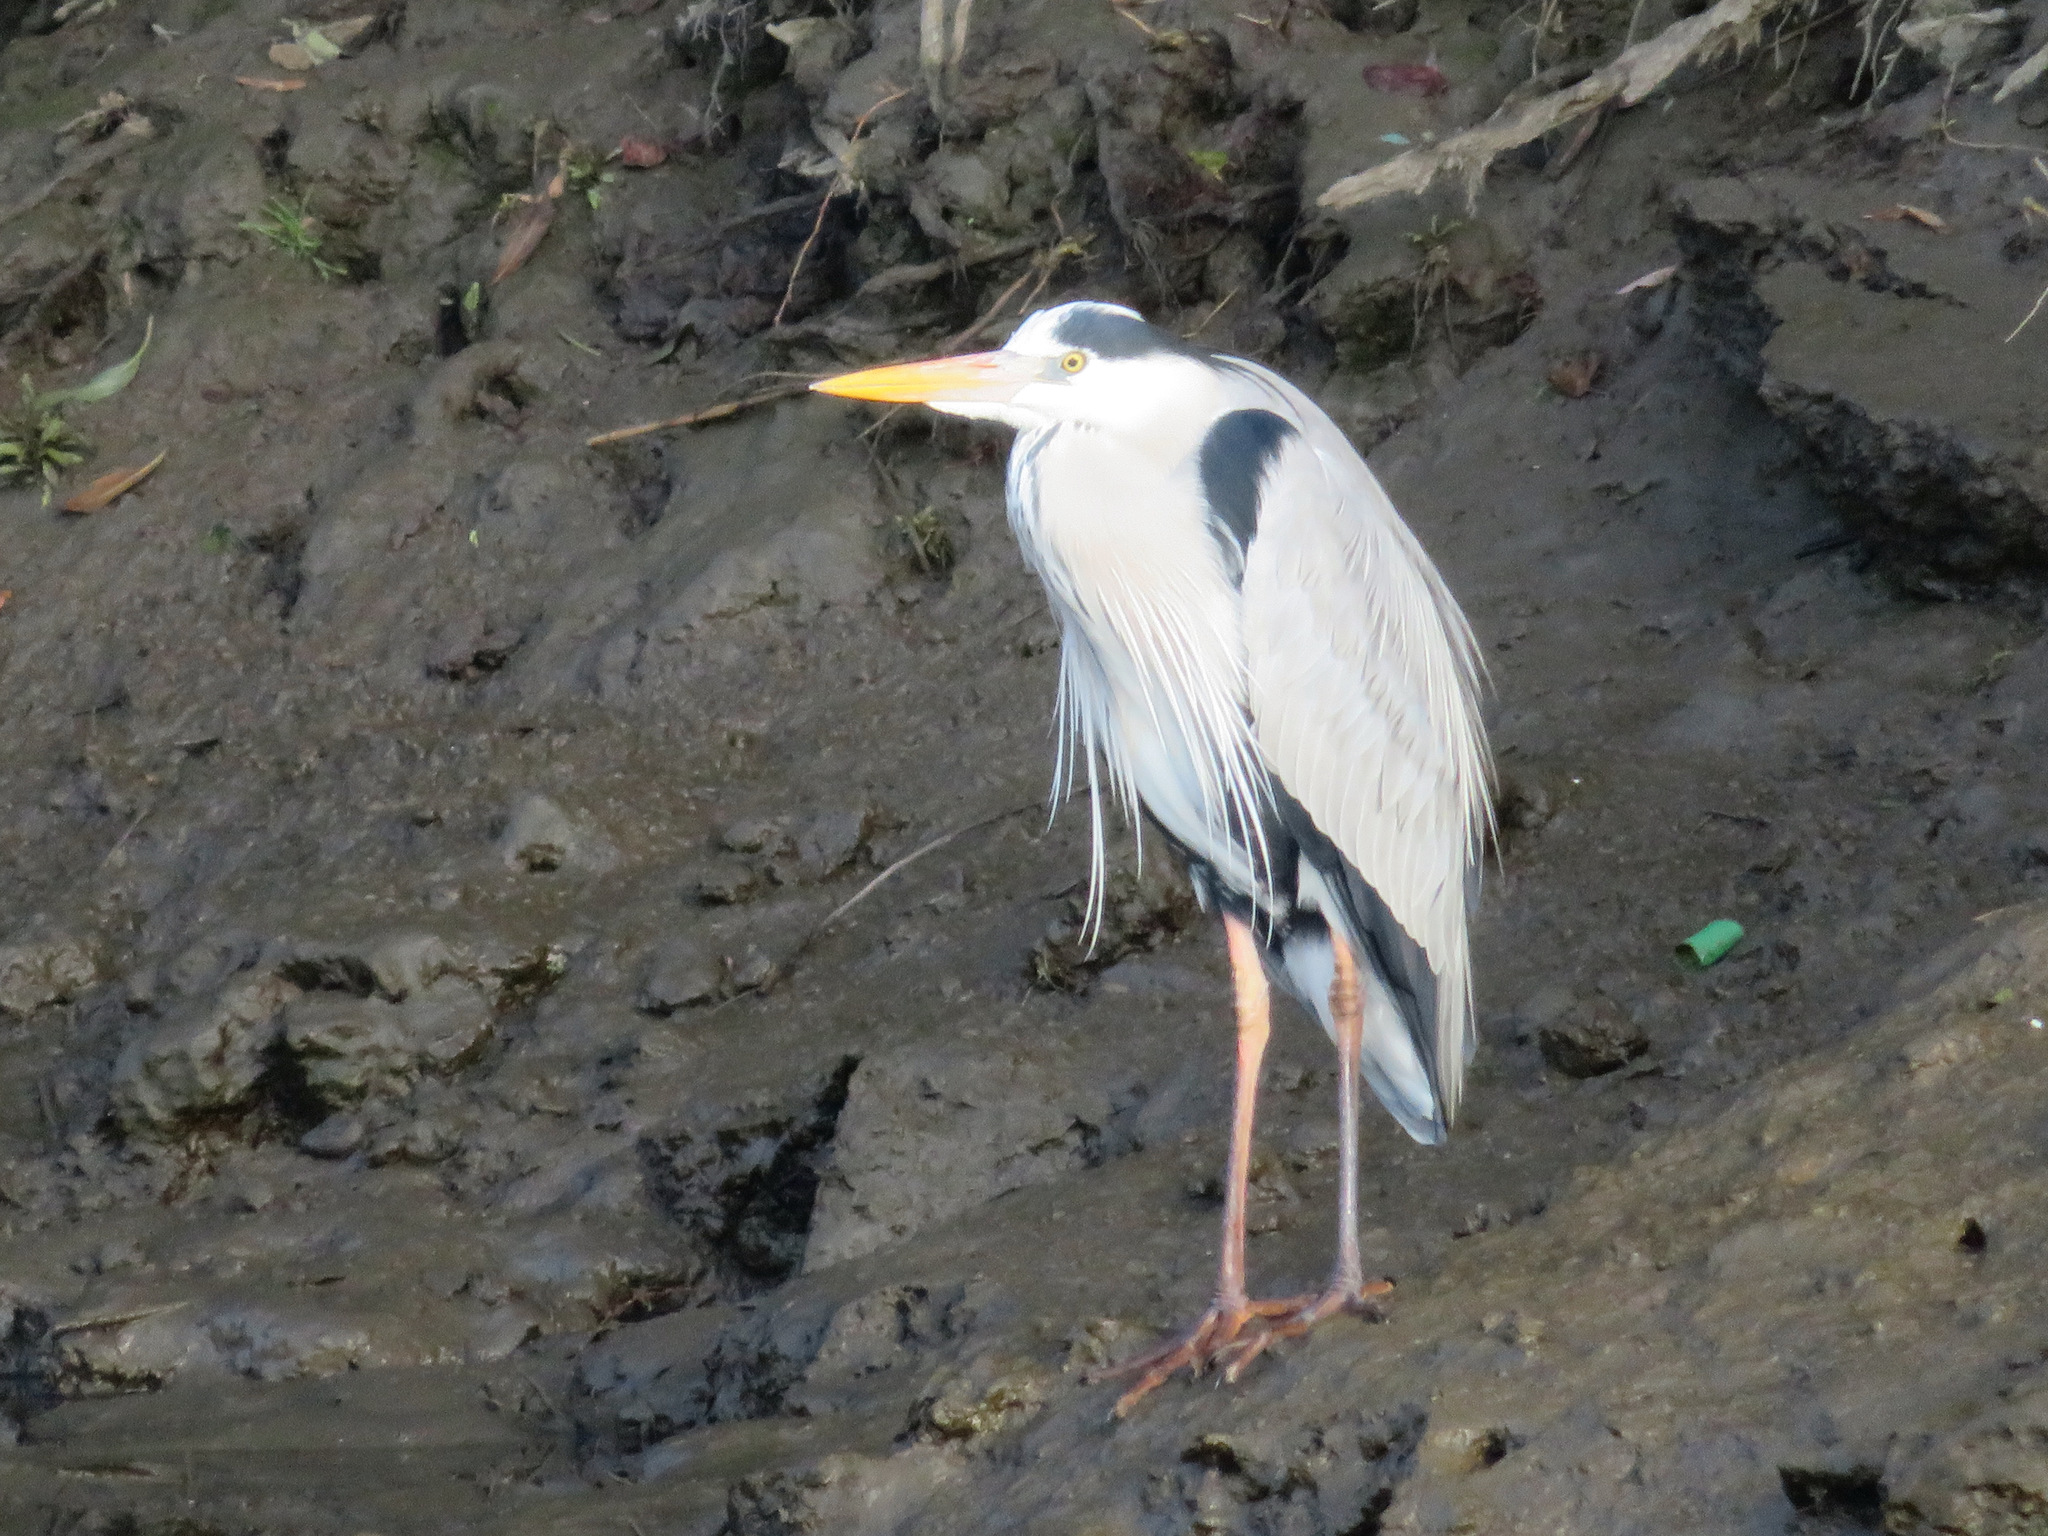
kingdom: Animalia
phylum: Chordata
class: Aves
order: Pelecaniformes
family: Ardeidae
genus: Ardea
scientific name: Ardea cinerea
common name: Grey heron
